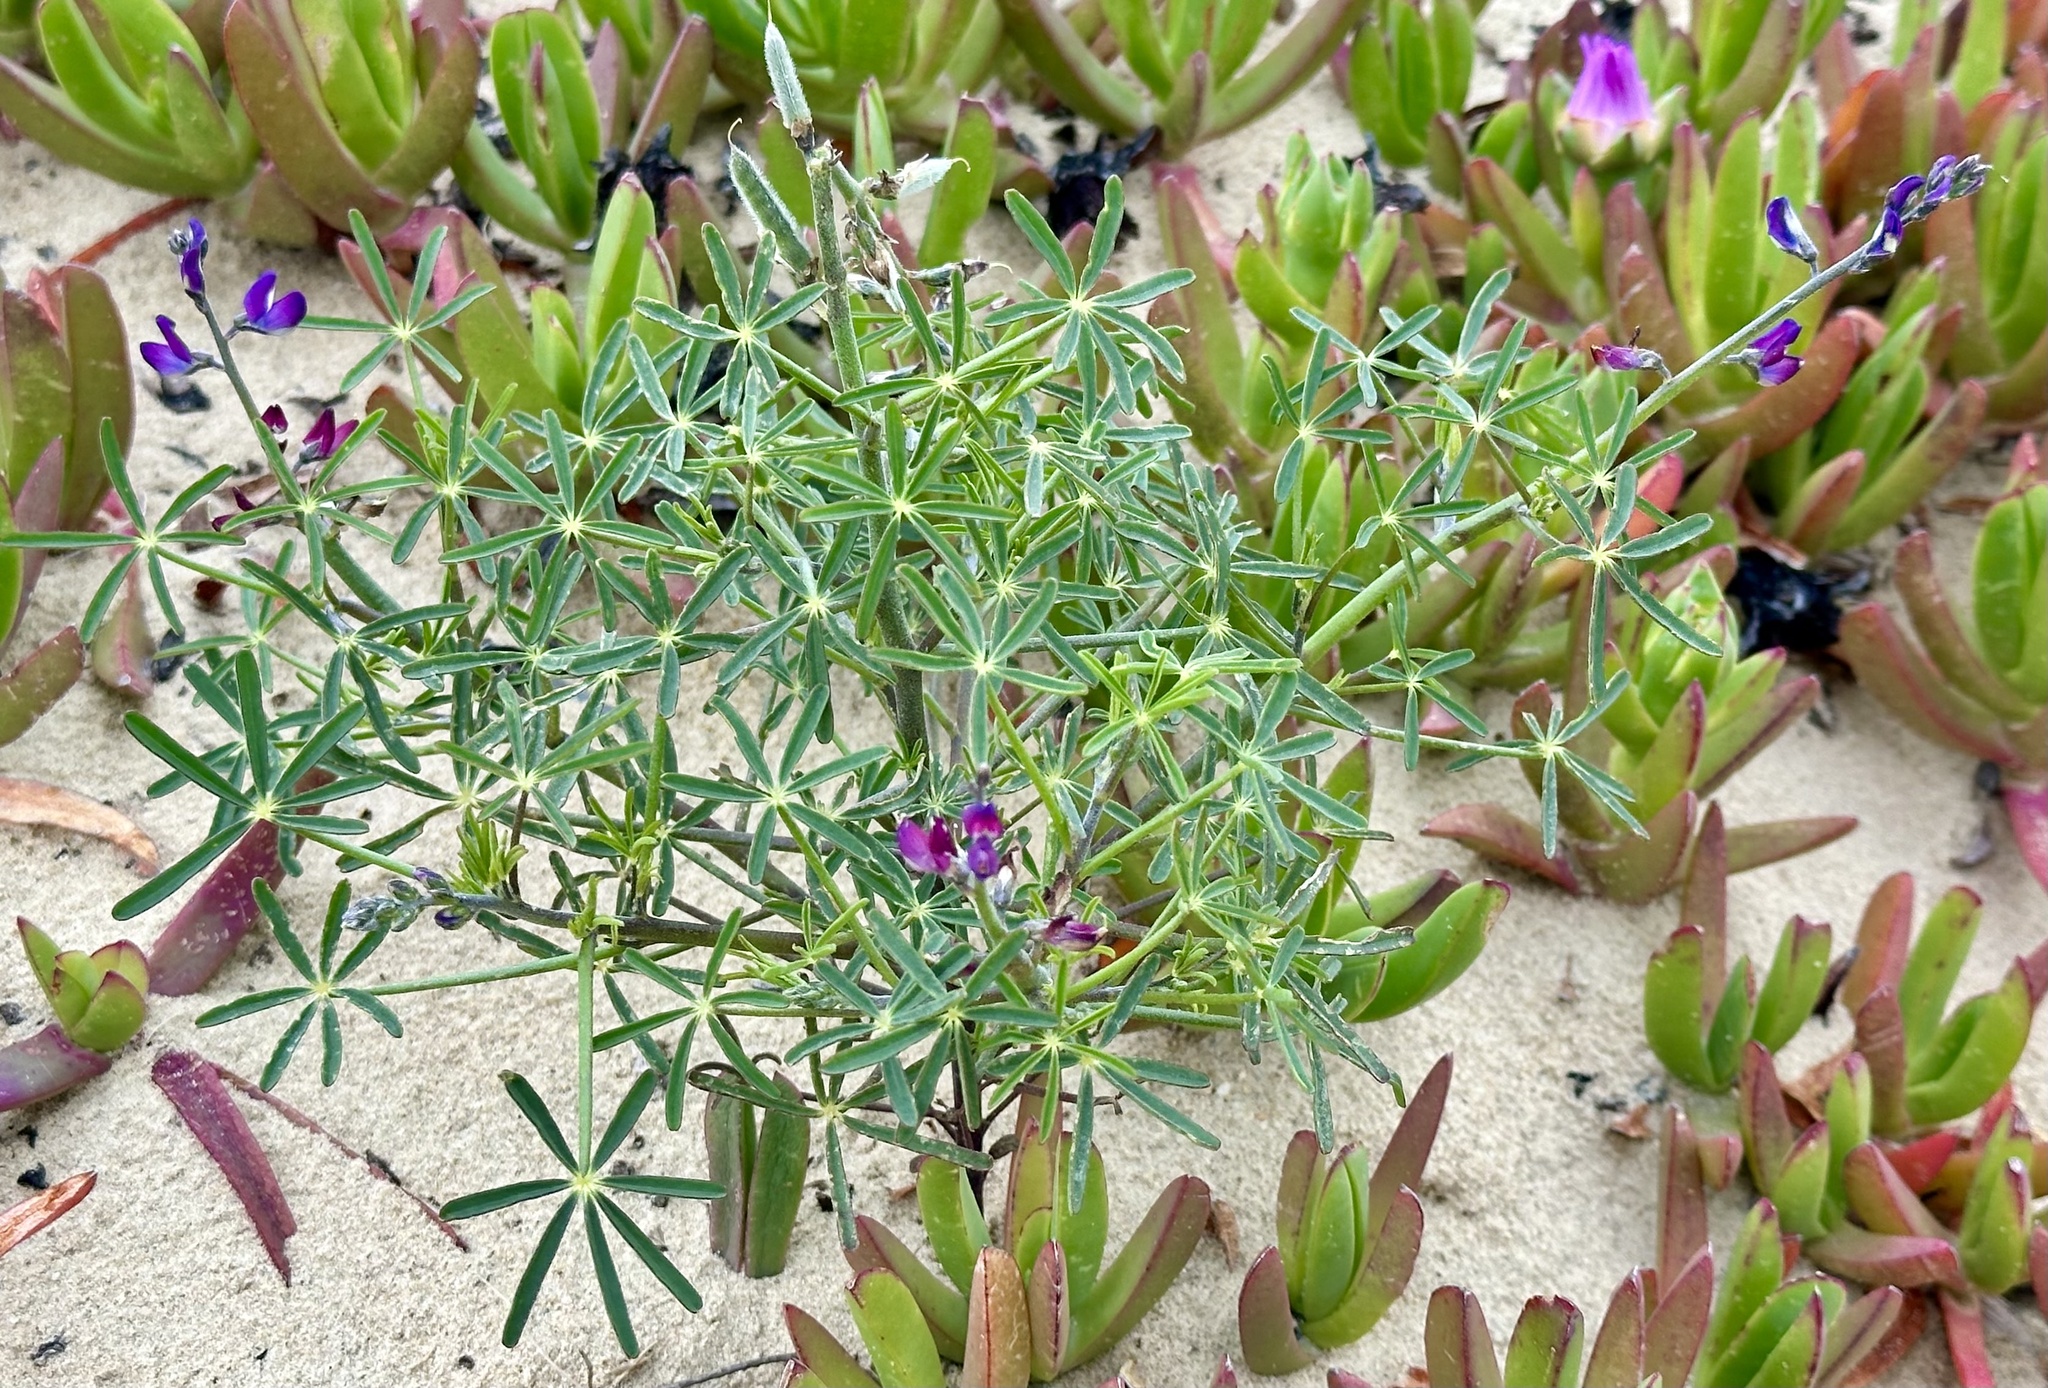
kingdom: Plantae
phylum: Tracheophyta
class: Magnoliopsida
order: Fabales
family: Fabaceae
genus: Lupinus
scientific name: Lupinus truncatus
